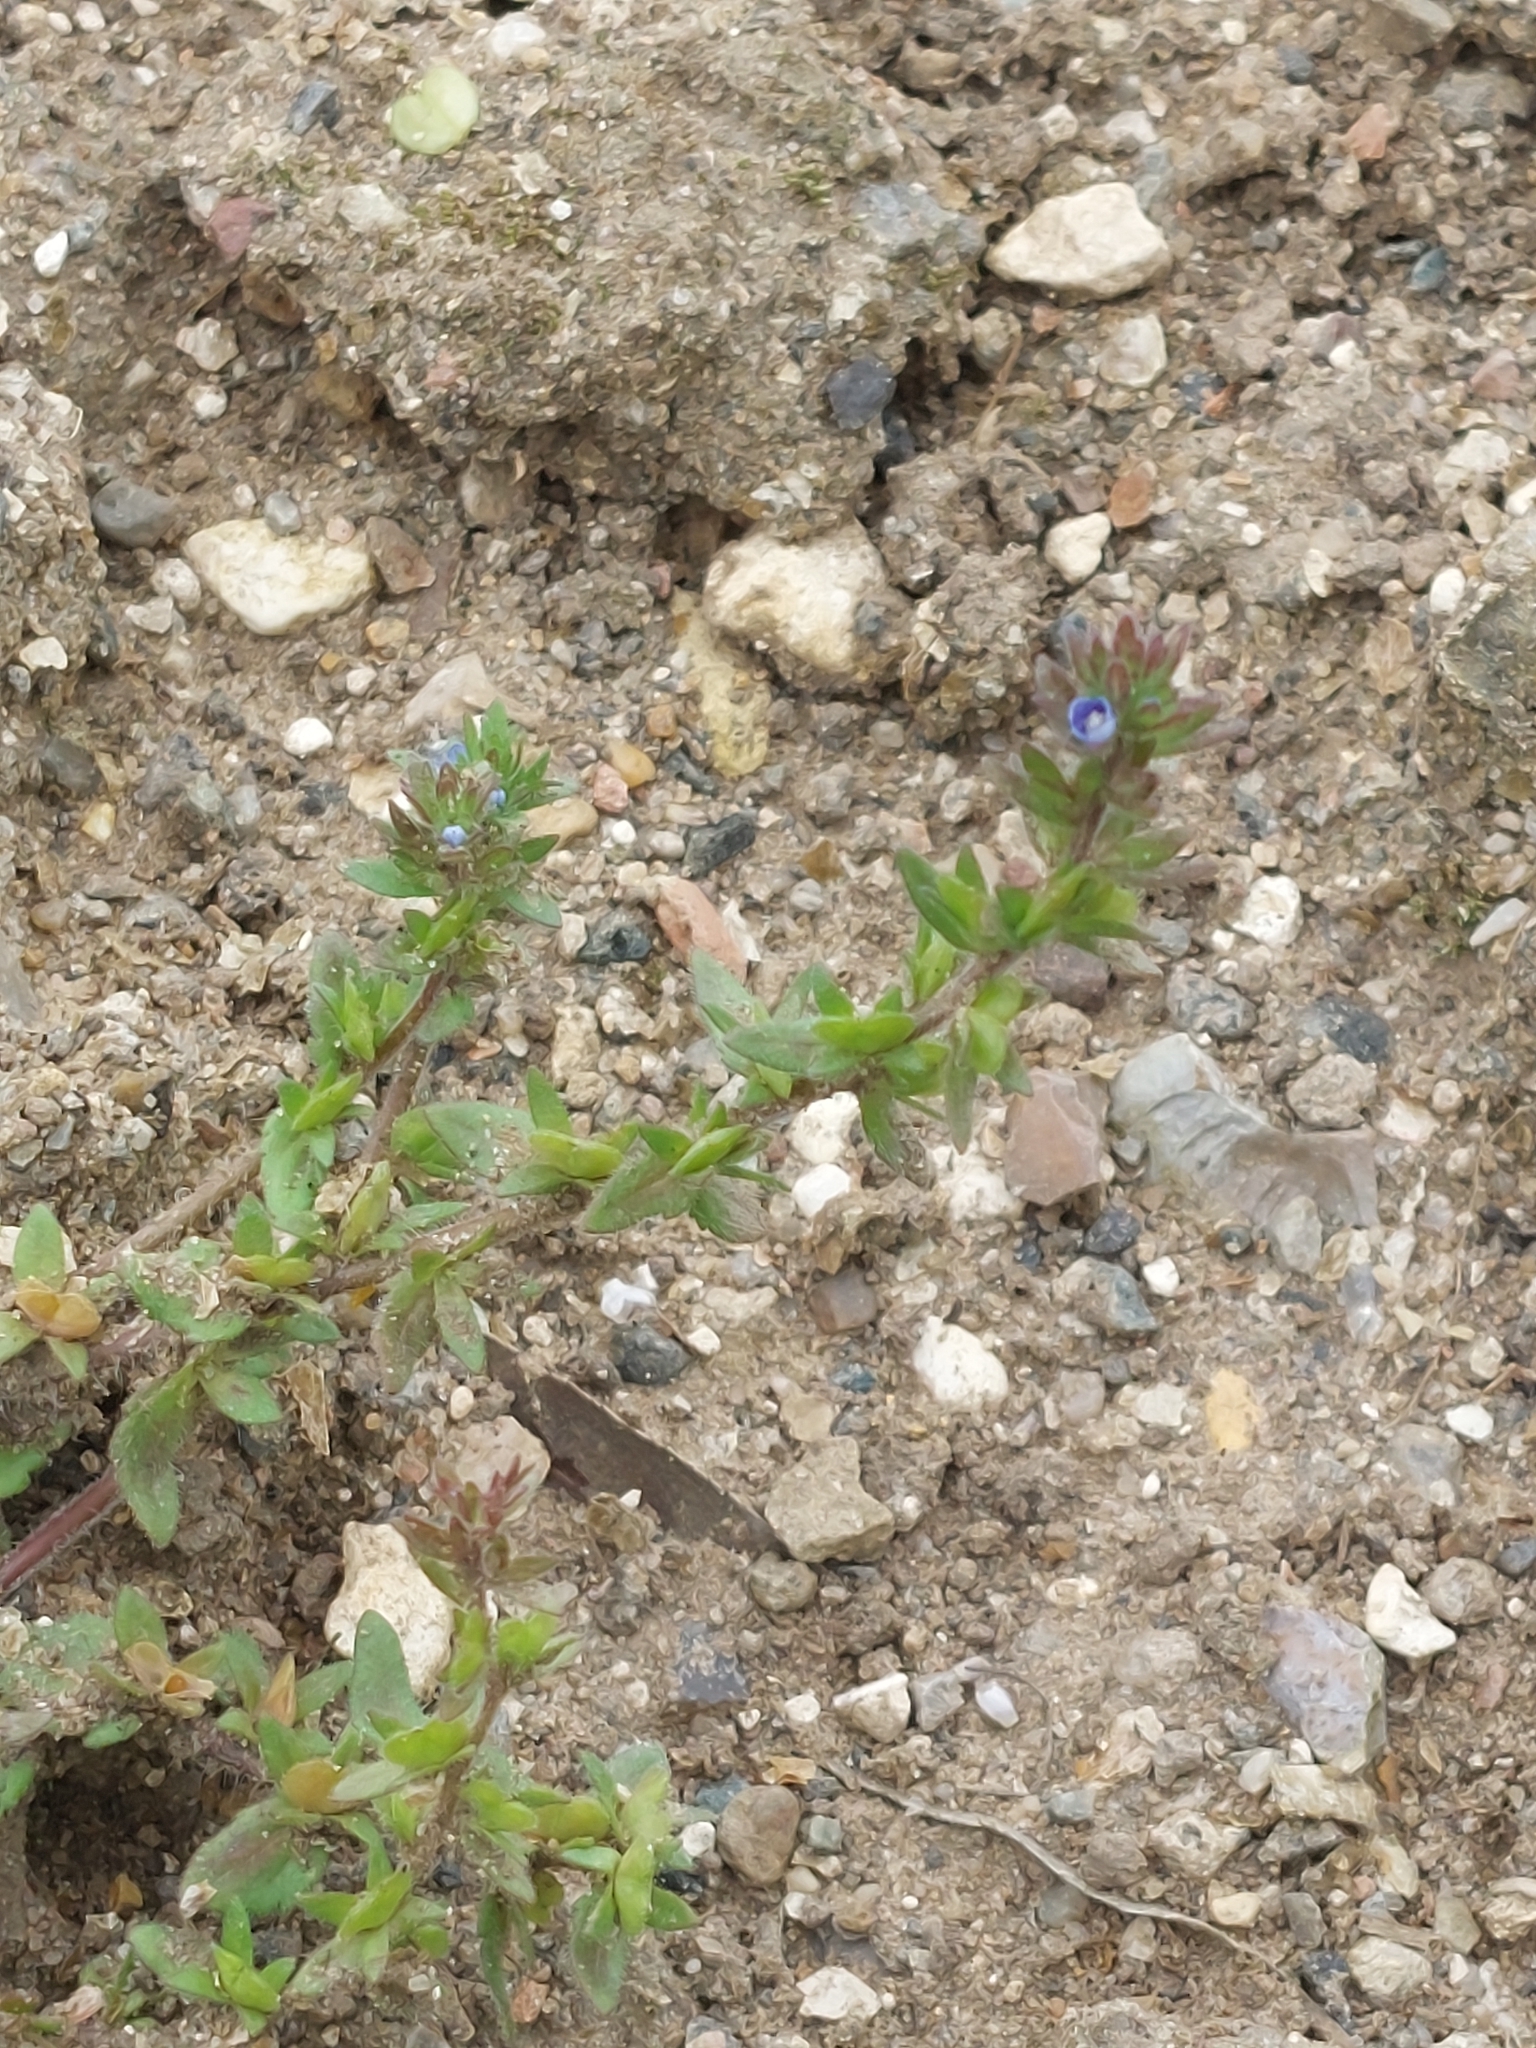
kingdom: Plantae
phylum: Tracheophyta
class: Magnoliopsida
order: Lamiales
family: Plantaginaceae
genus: Veronica
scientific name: Veronica arvensis
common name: Corn speedwell
